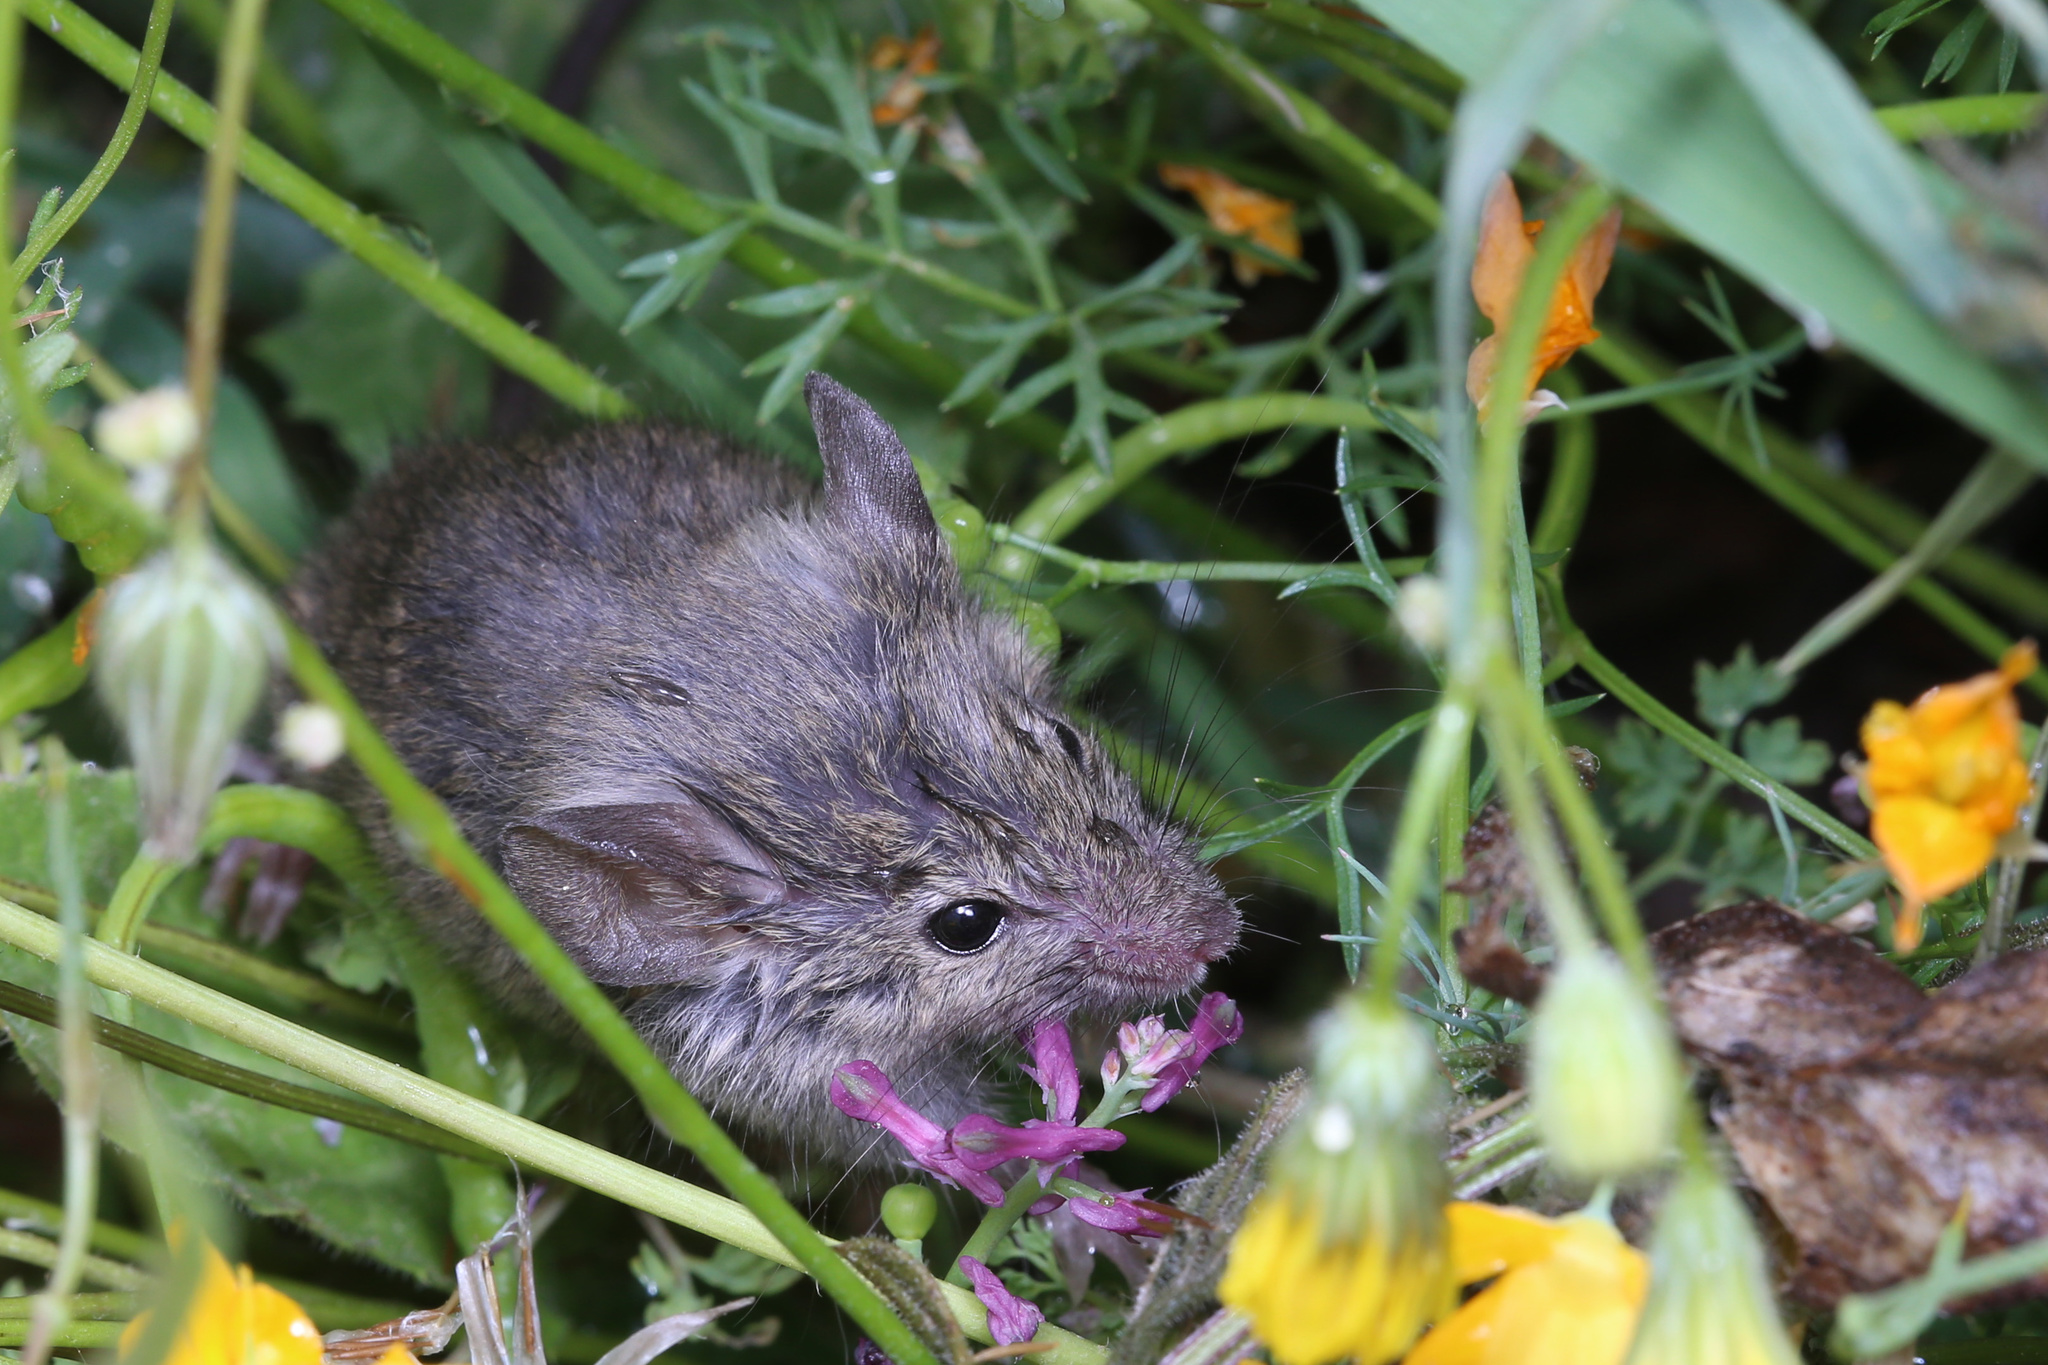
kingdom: Animalia
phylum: Chordata
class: Mammalia
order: Rodentia
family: Muridae
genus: Mus
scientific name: Mus musculus
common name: House mouse
